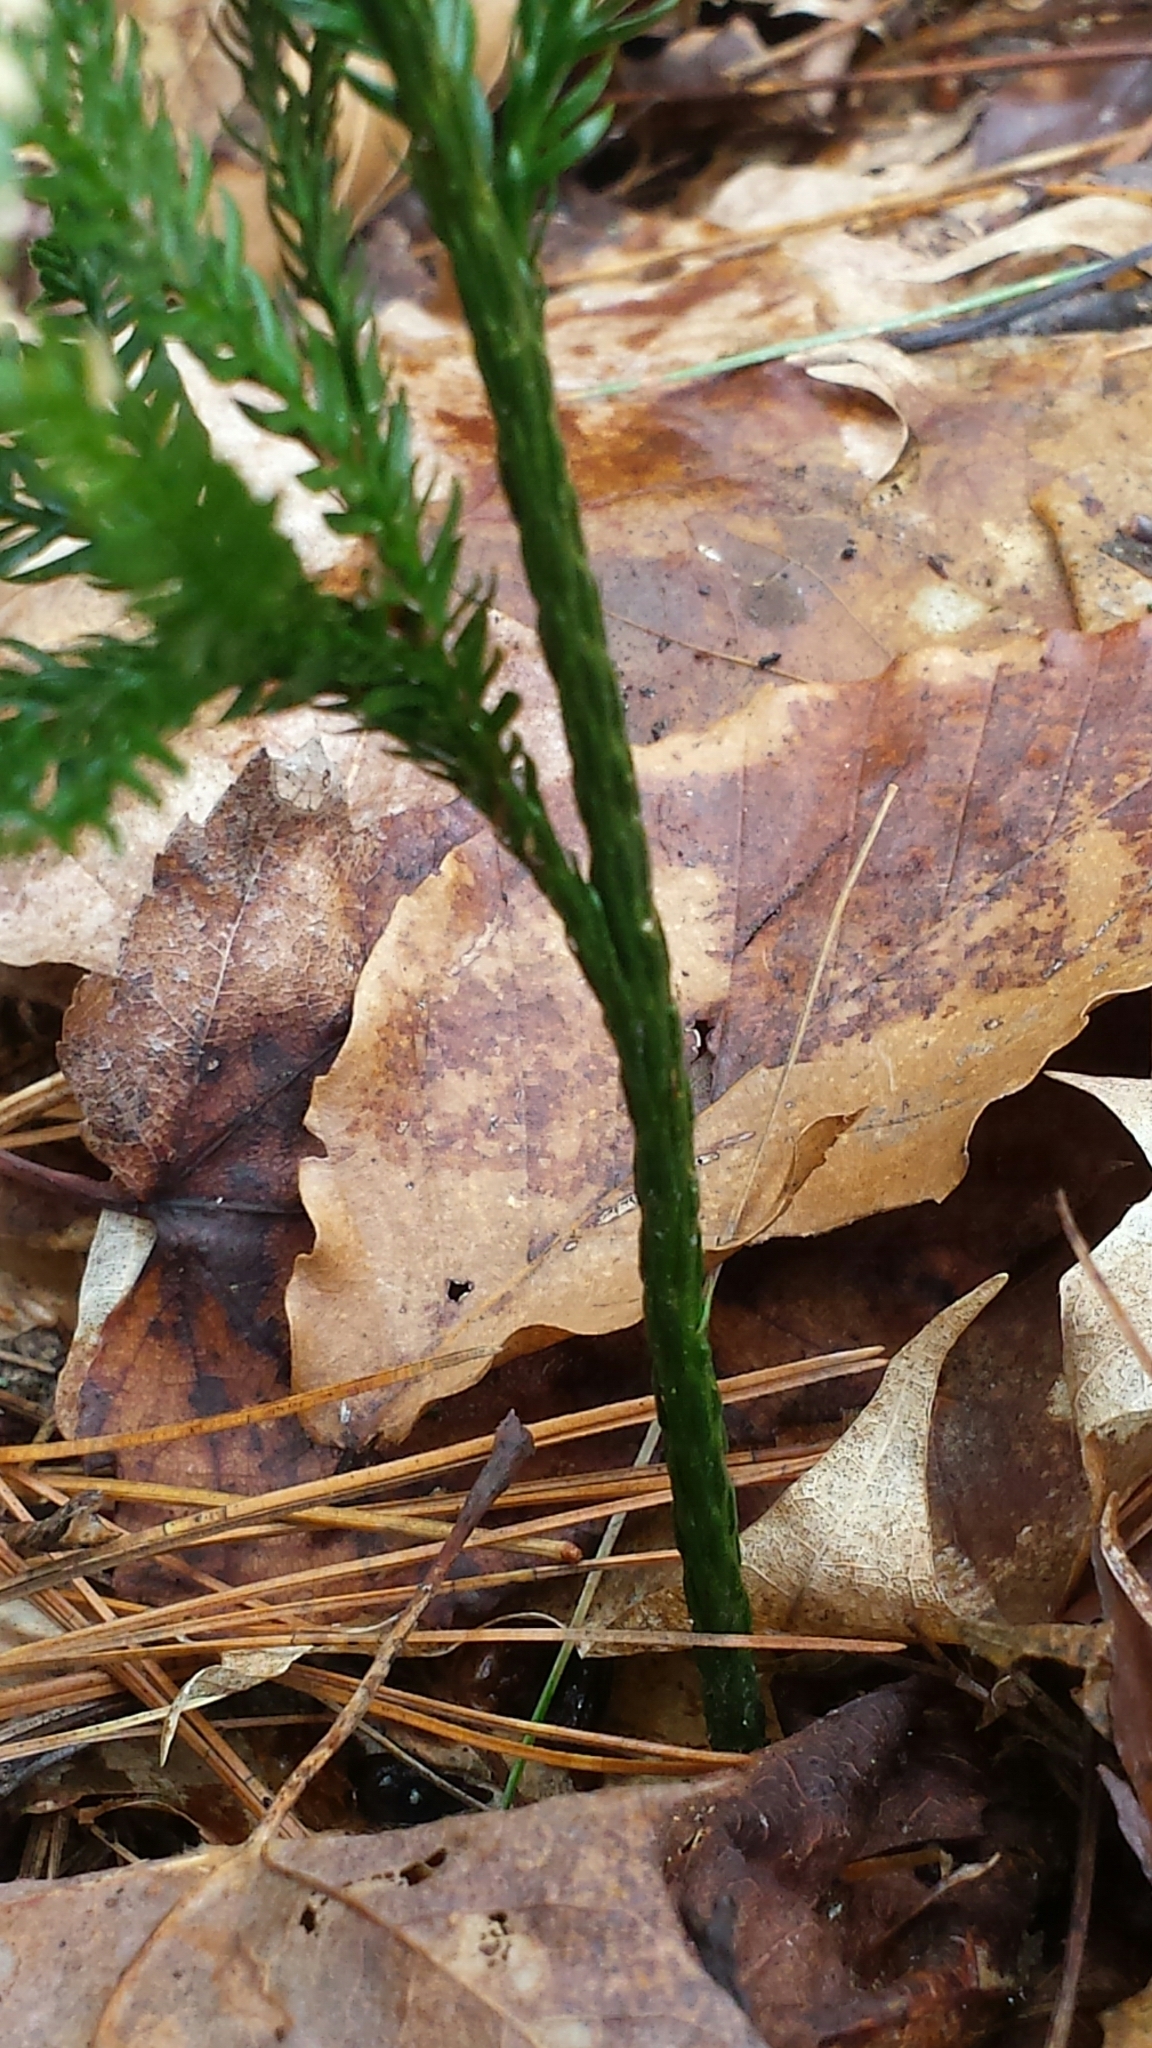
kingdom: Plantae
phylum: Tracheophyta
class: Lycopodiopsida
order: Lycopodiales
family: Lycopodiaceae
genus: Dendrolycopodium
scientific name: Dendrolycopodium obscurum
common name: Common ground-pine
